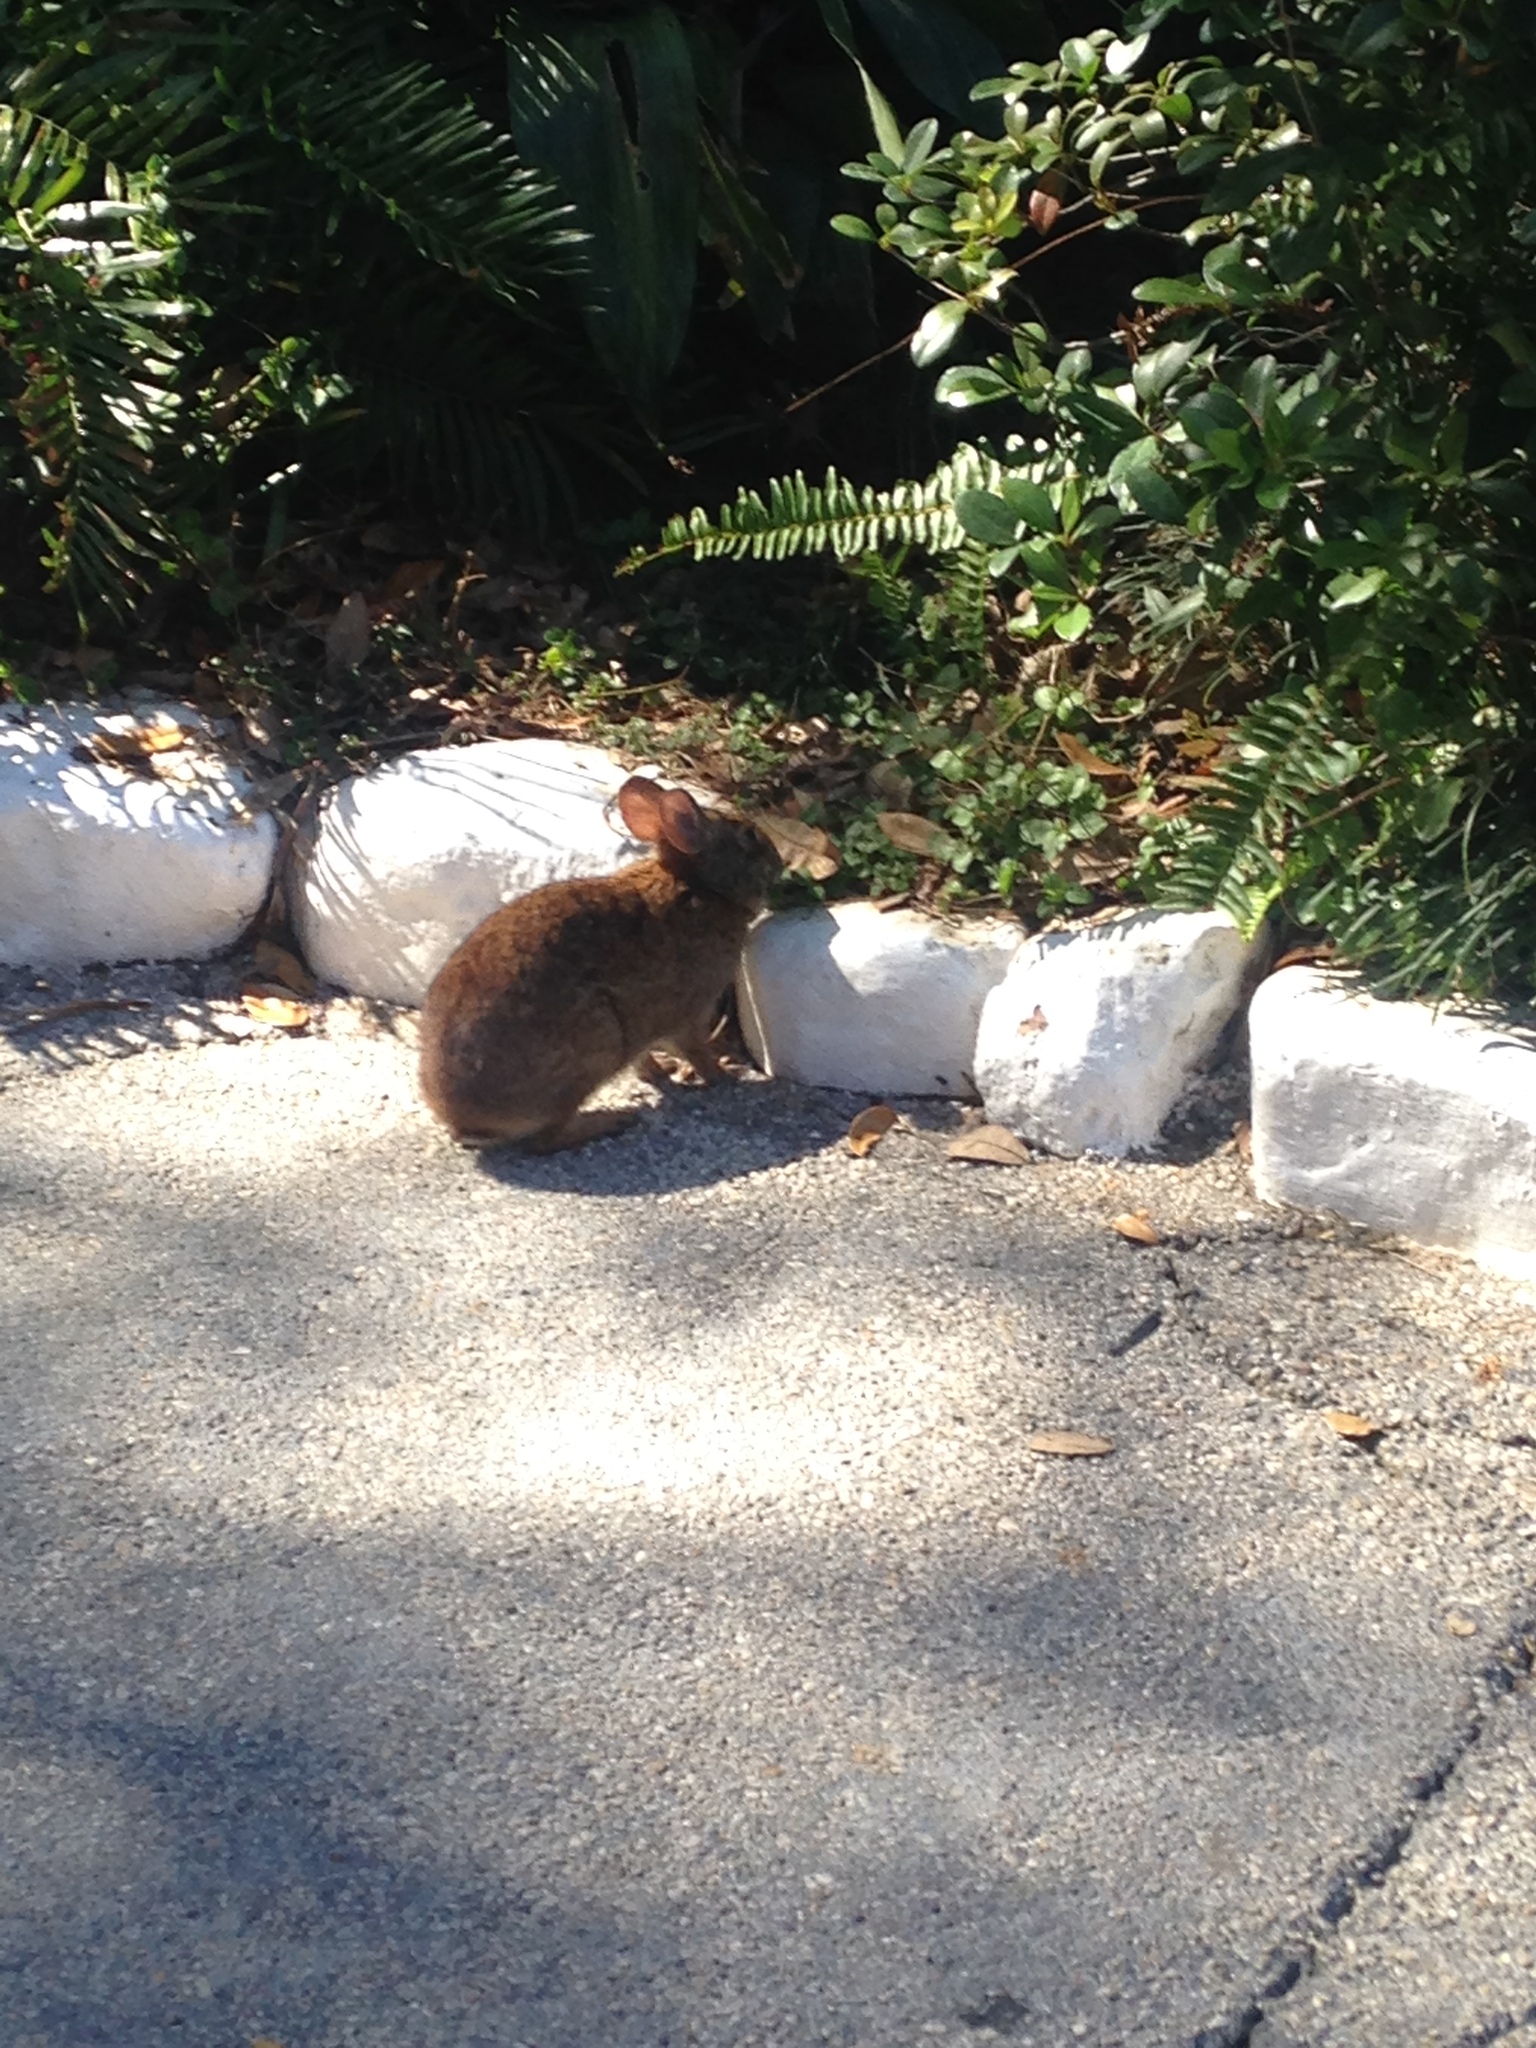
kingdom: Animalia
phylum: Chordata
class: Mammalia
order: Lagomorpha
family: Leporidae
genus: Sylvilagus
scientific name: Sylvilagus palustris
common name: Marsh rabbit
